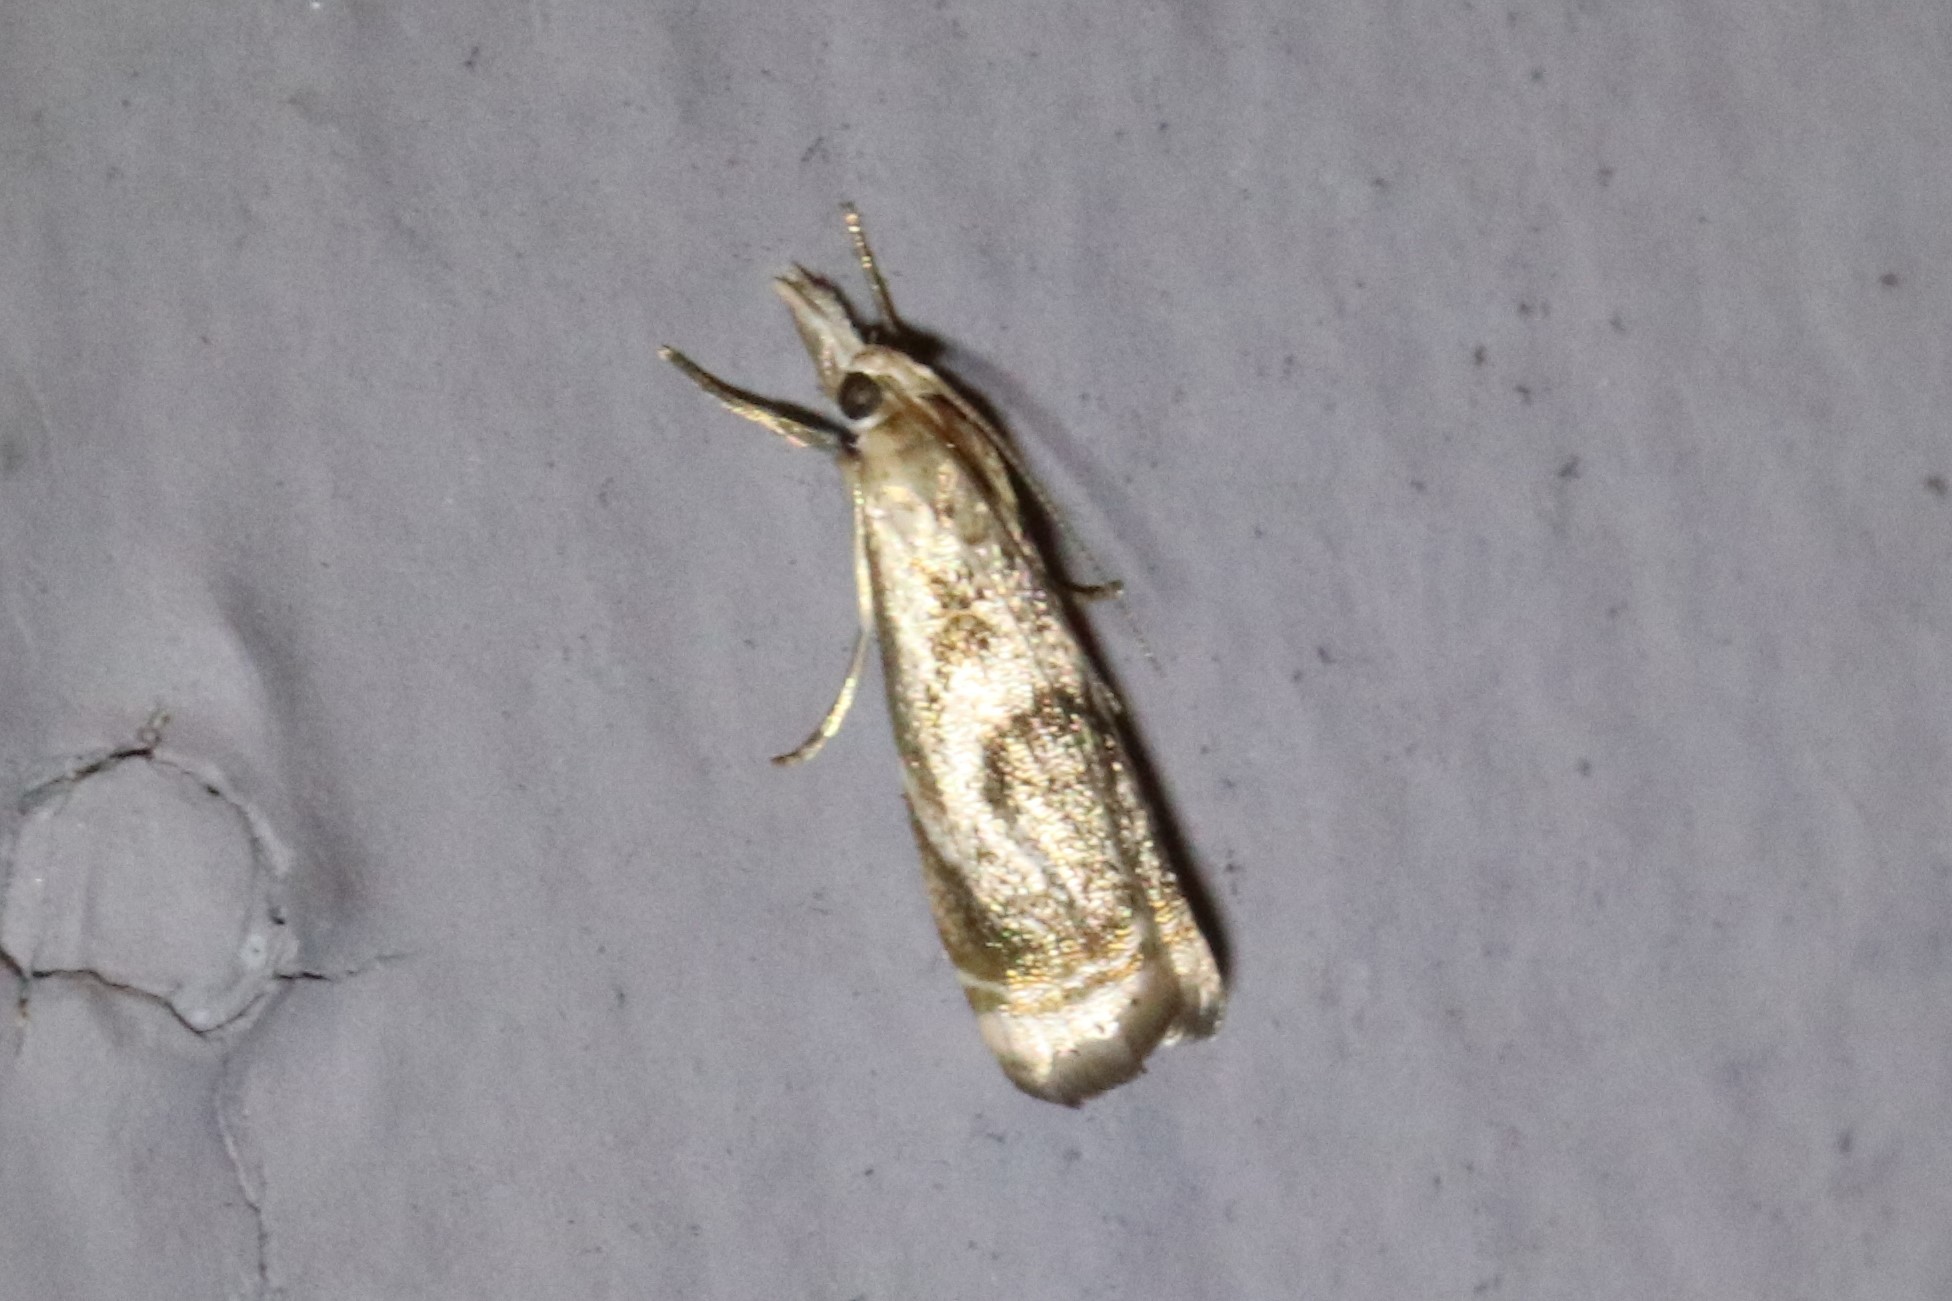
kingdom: Animalia
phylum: Arthropoda
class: Insecta
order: Lepidoptera
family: Crambidae
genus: Microcrambus
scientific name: Microcrambus elegans
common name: Elegant grass-veneer
